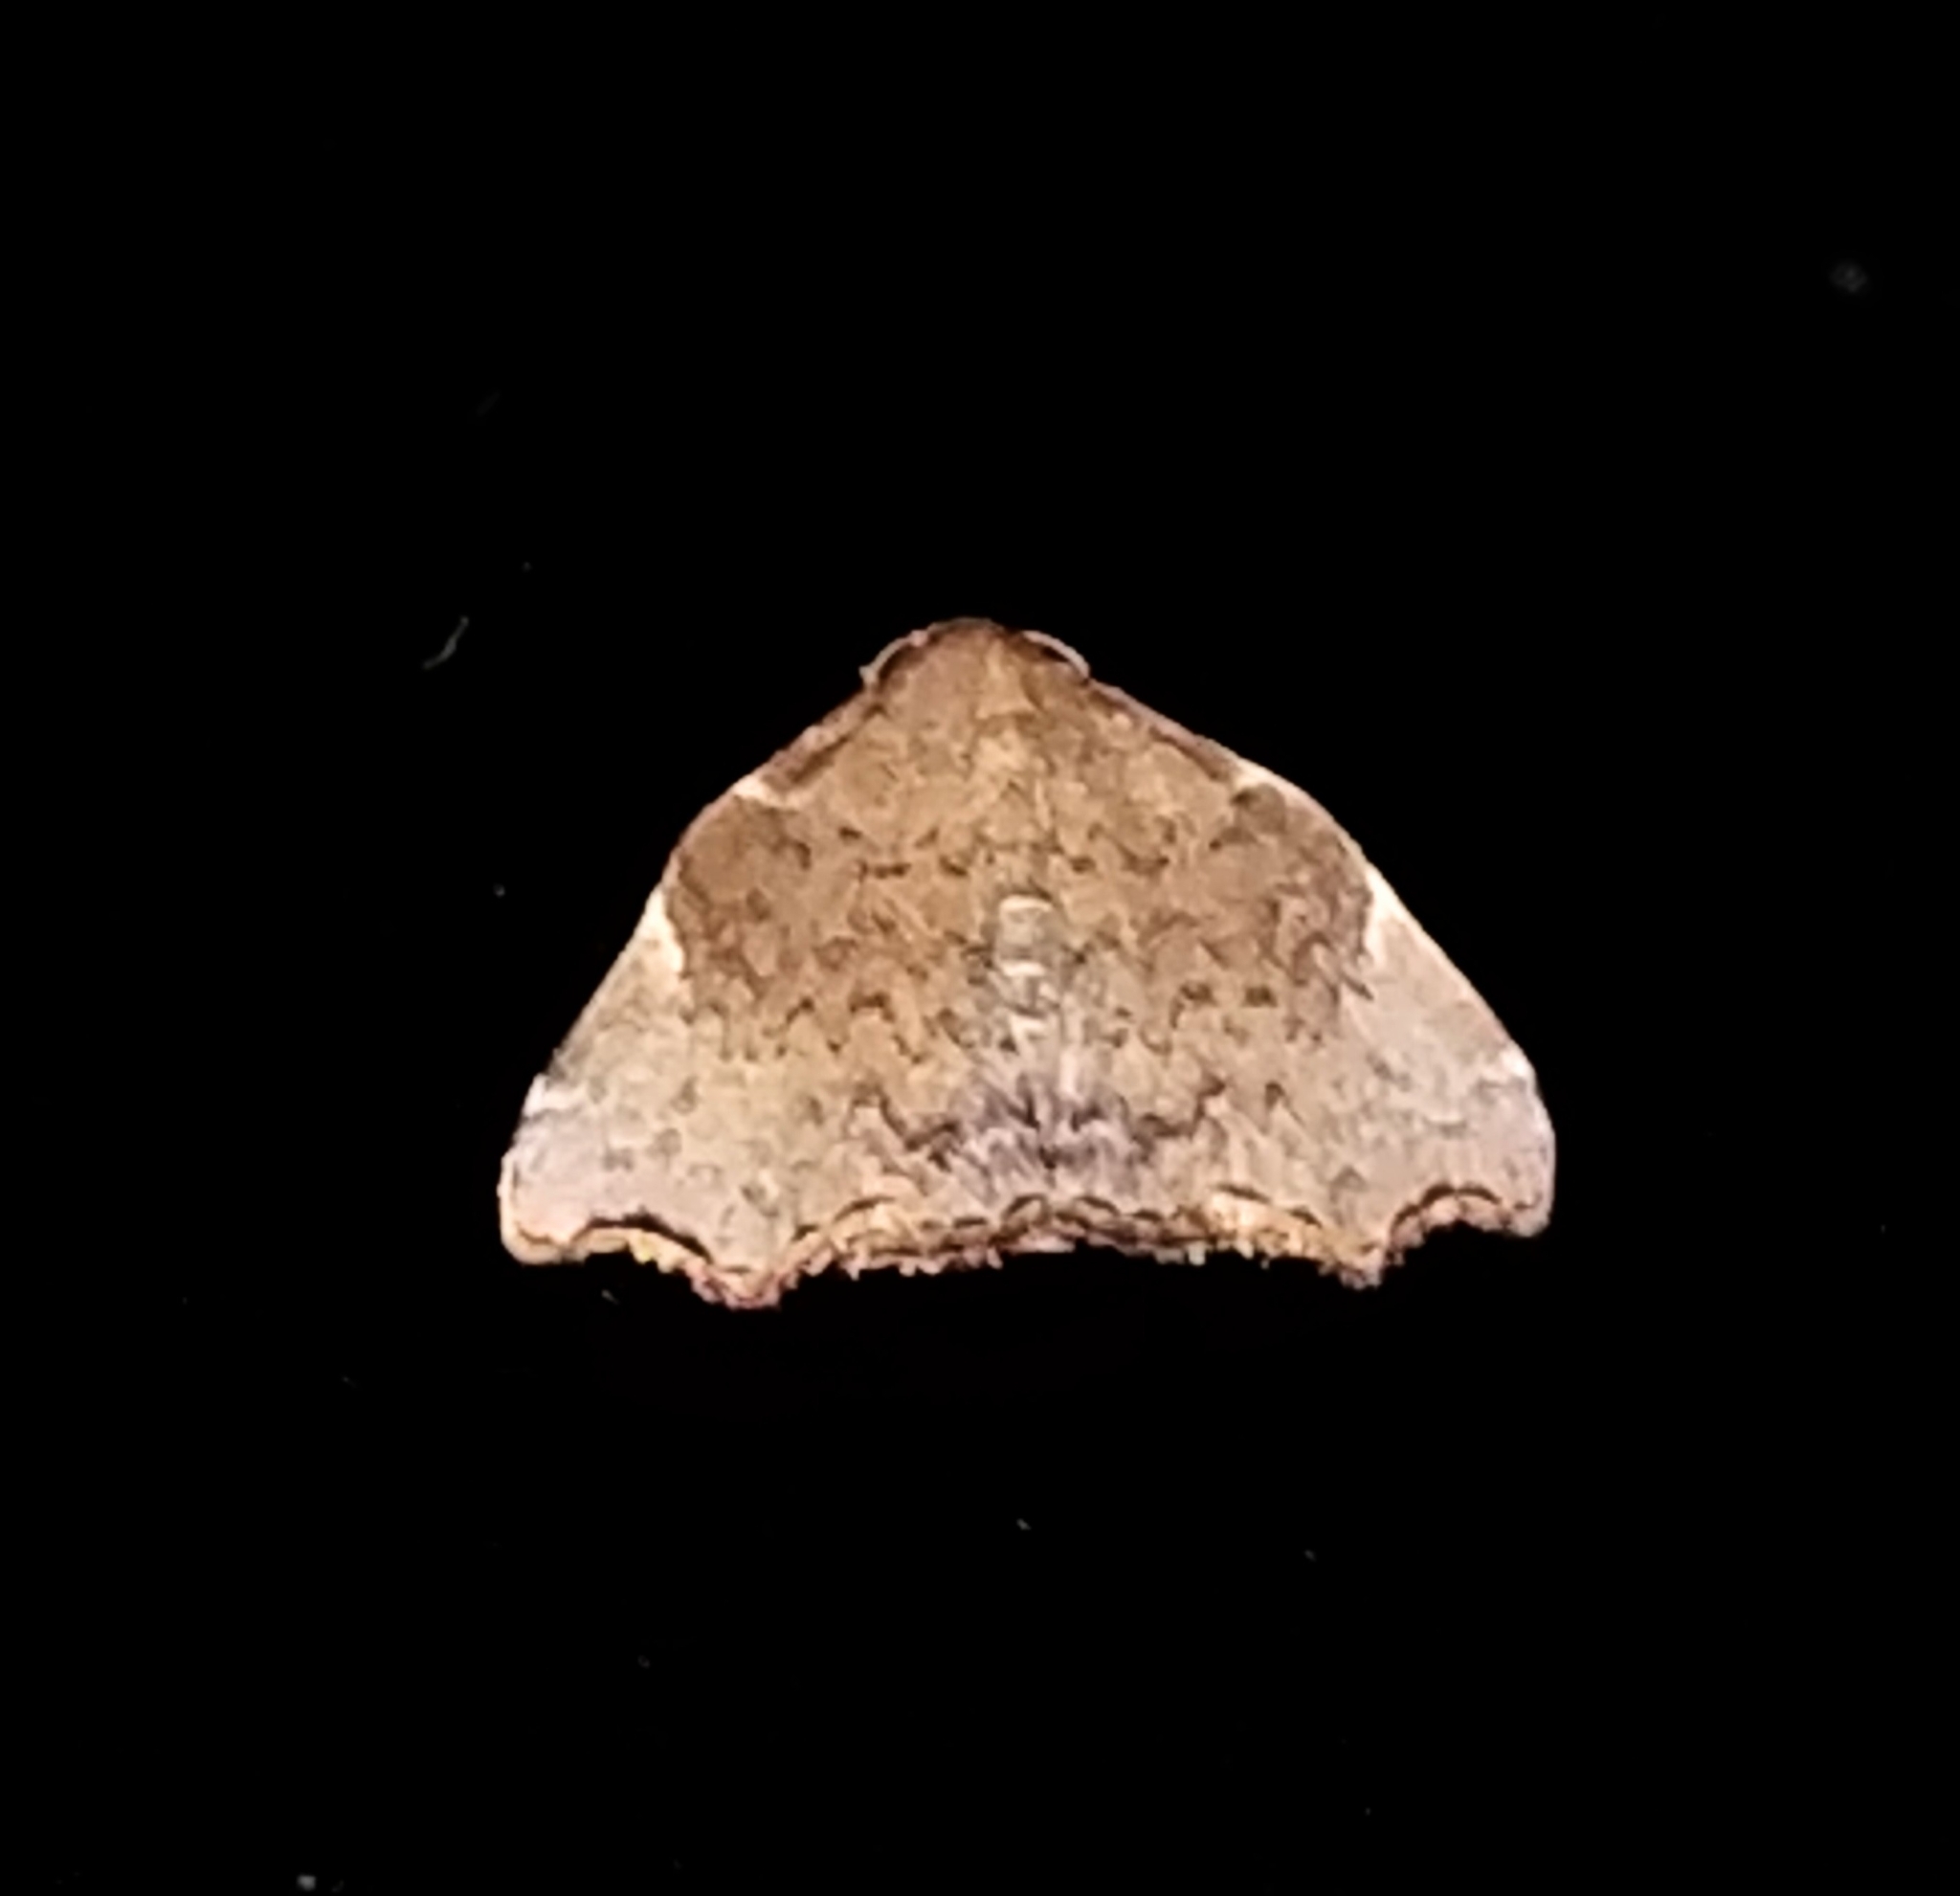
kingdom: Animalia
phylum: Arthropoda
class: Insecta
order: Lepidoptera
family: Erebidae
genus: Goniocraspedon
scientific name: Goniocraspedon mistura
